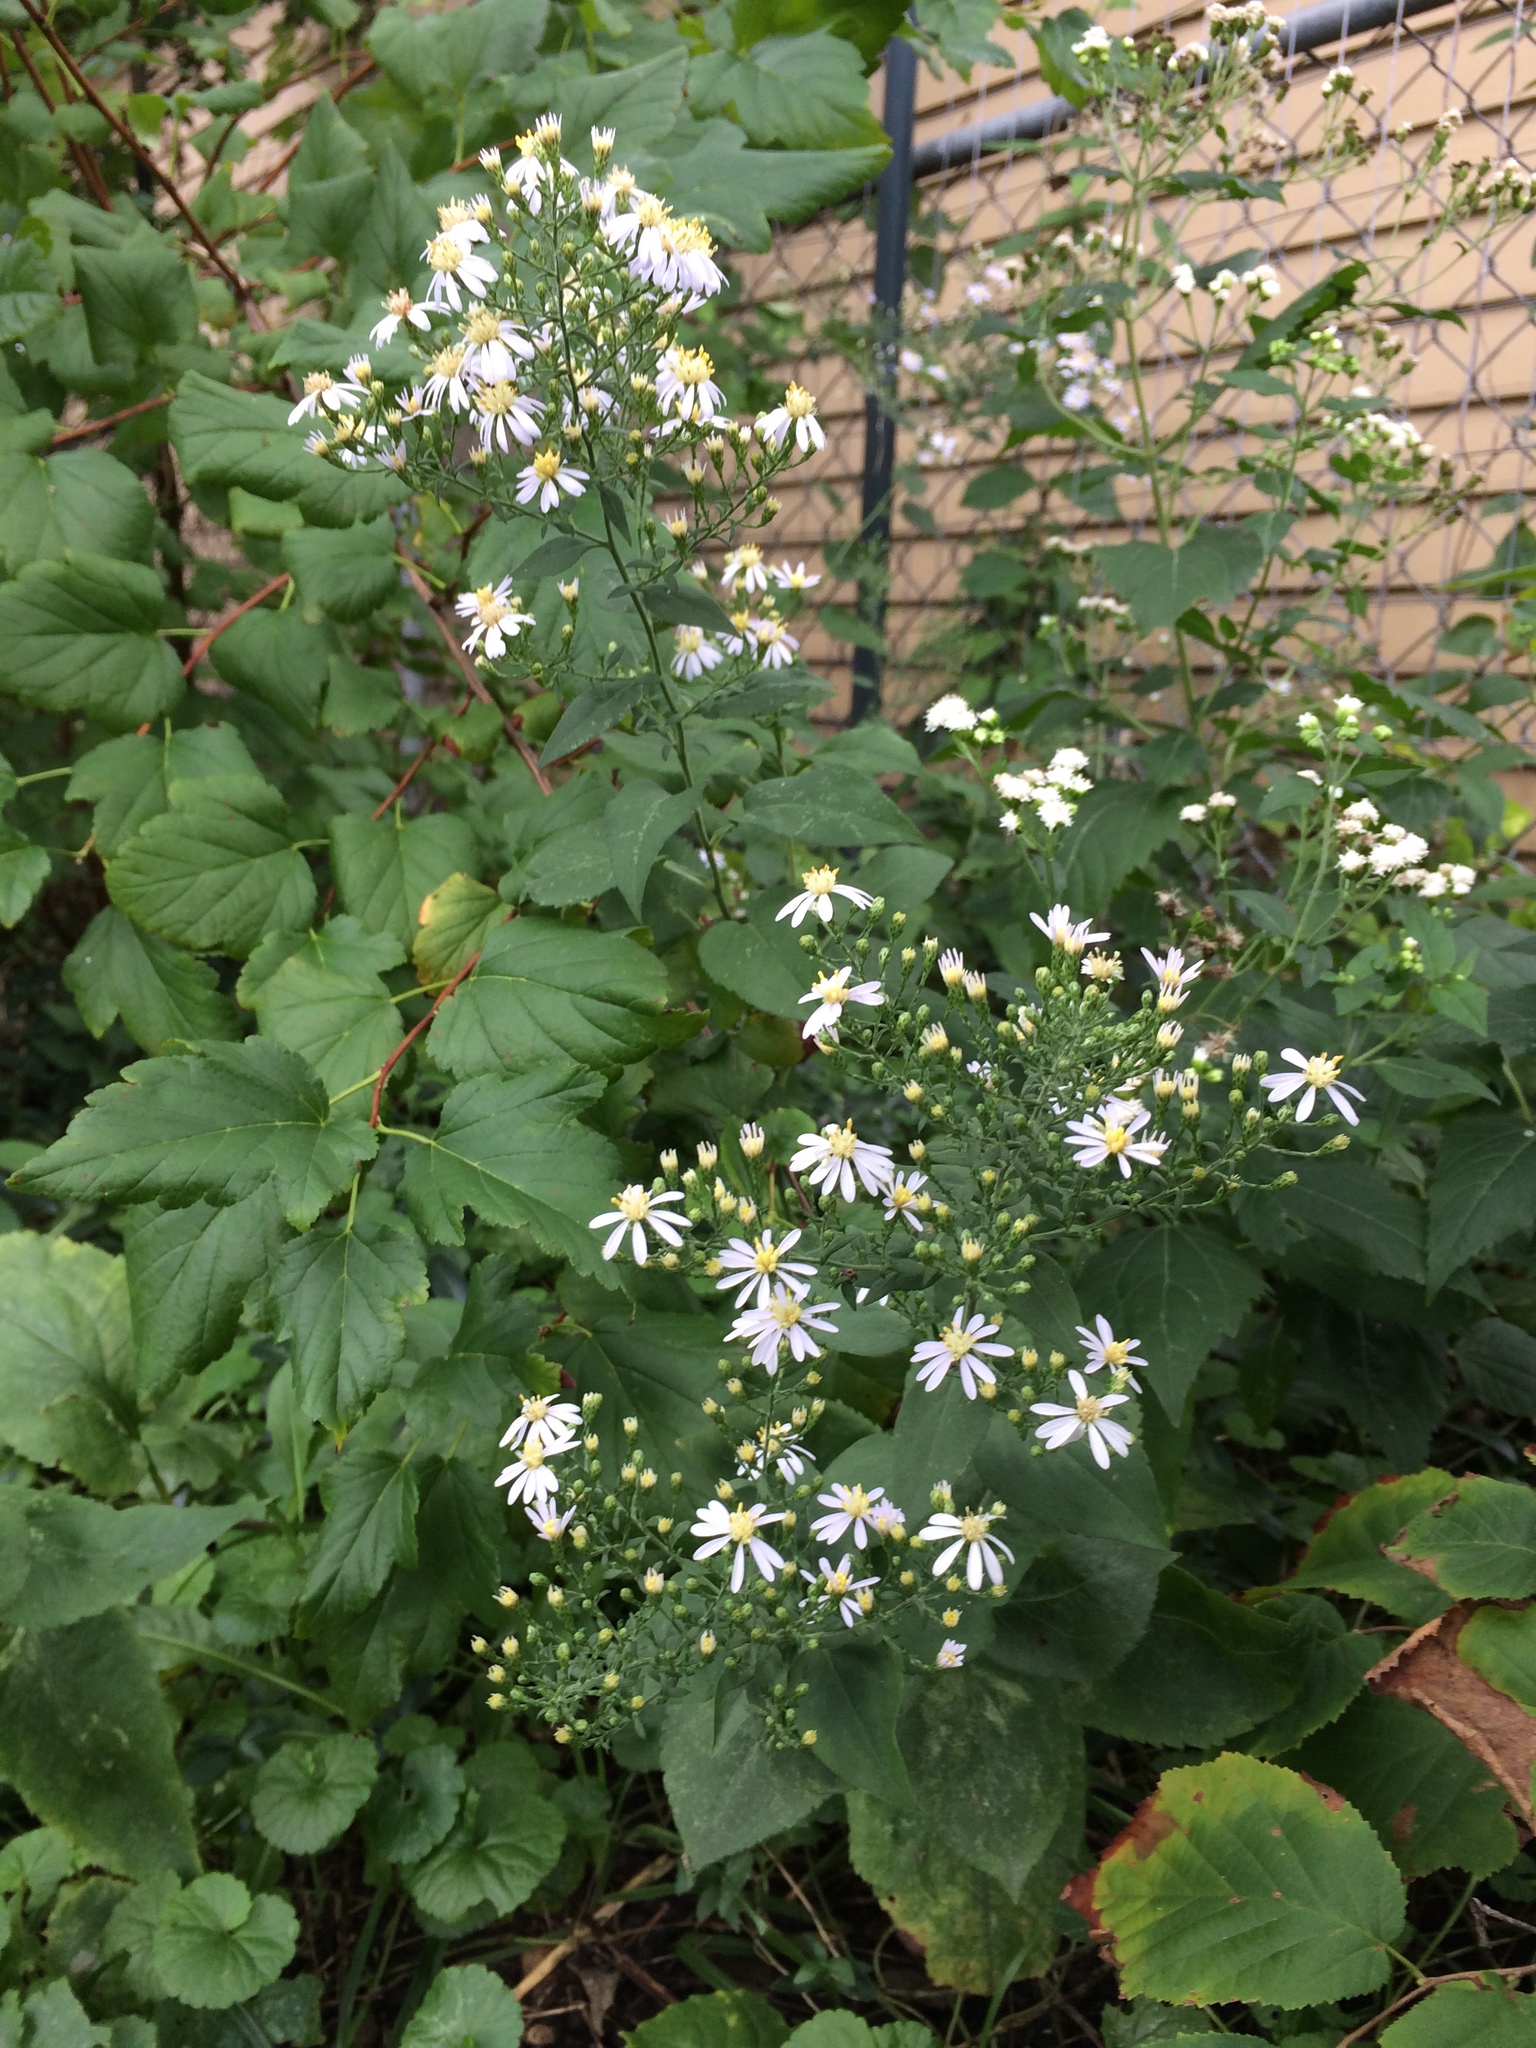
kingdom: Plantae
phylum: Tracheophyta
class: Magnoliopsida
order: Asterales
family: Asteraceae
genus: Symphyotrichum
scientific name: Symphyotrichum cordifolium
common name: Beeweed
